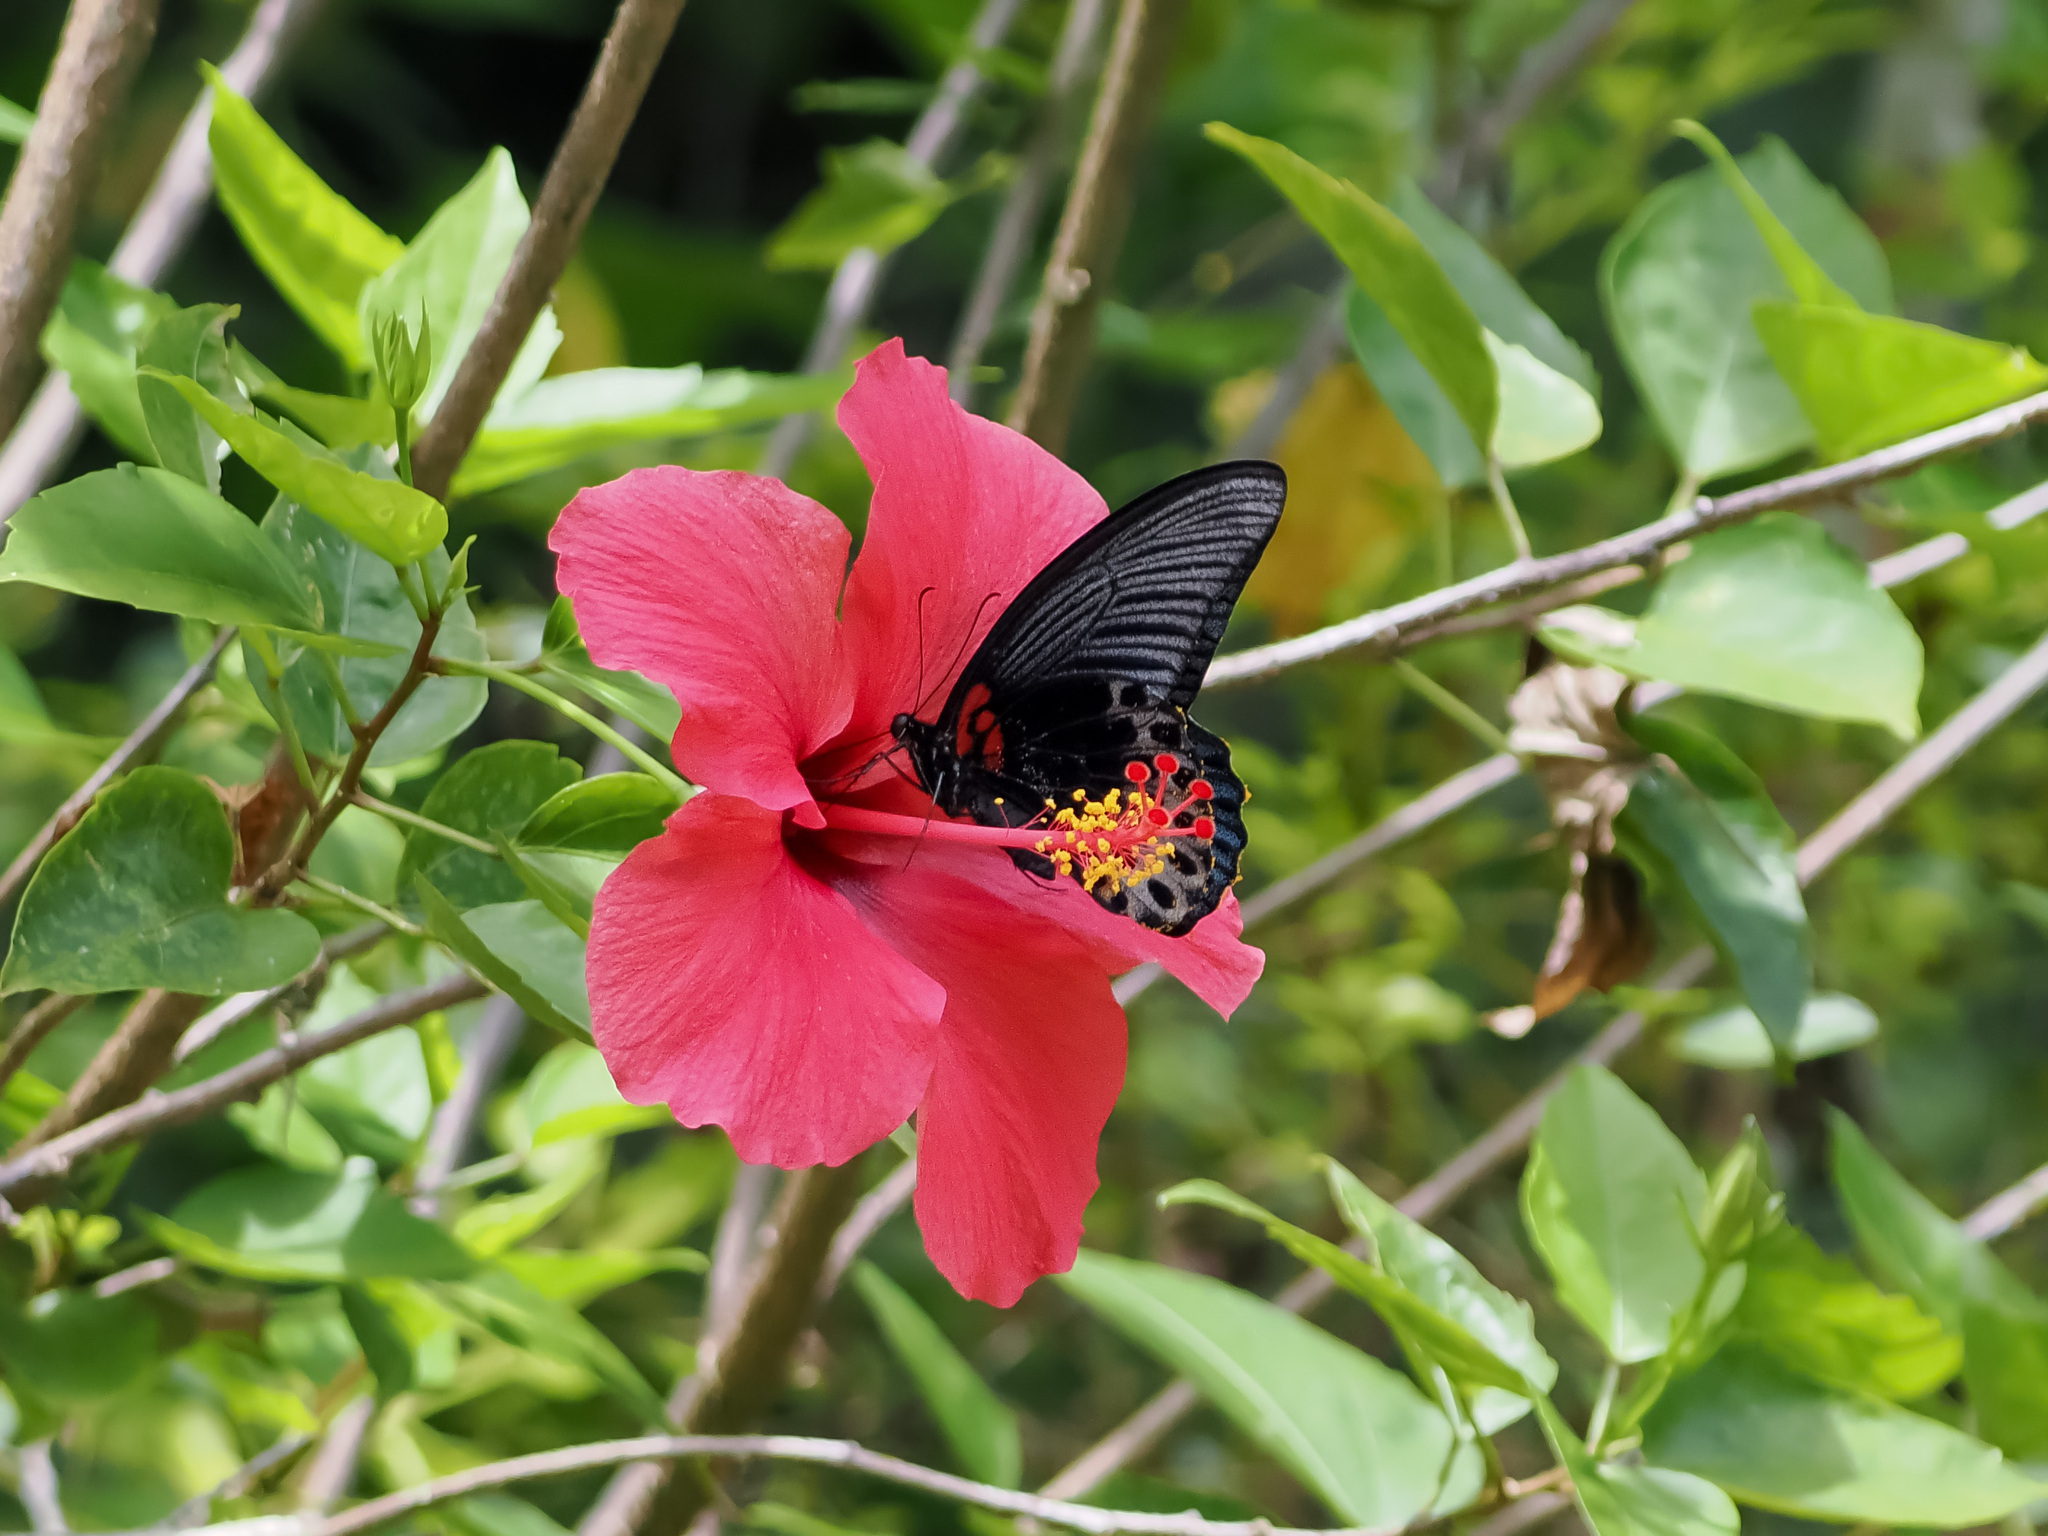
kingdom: Animalia
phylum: Arthropoda
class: Insecta
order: Lepidoptera
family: Papilionidae
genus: Papilio
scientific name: Papilio memnon
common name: Great mormon
